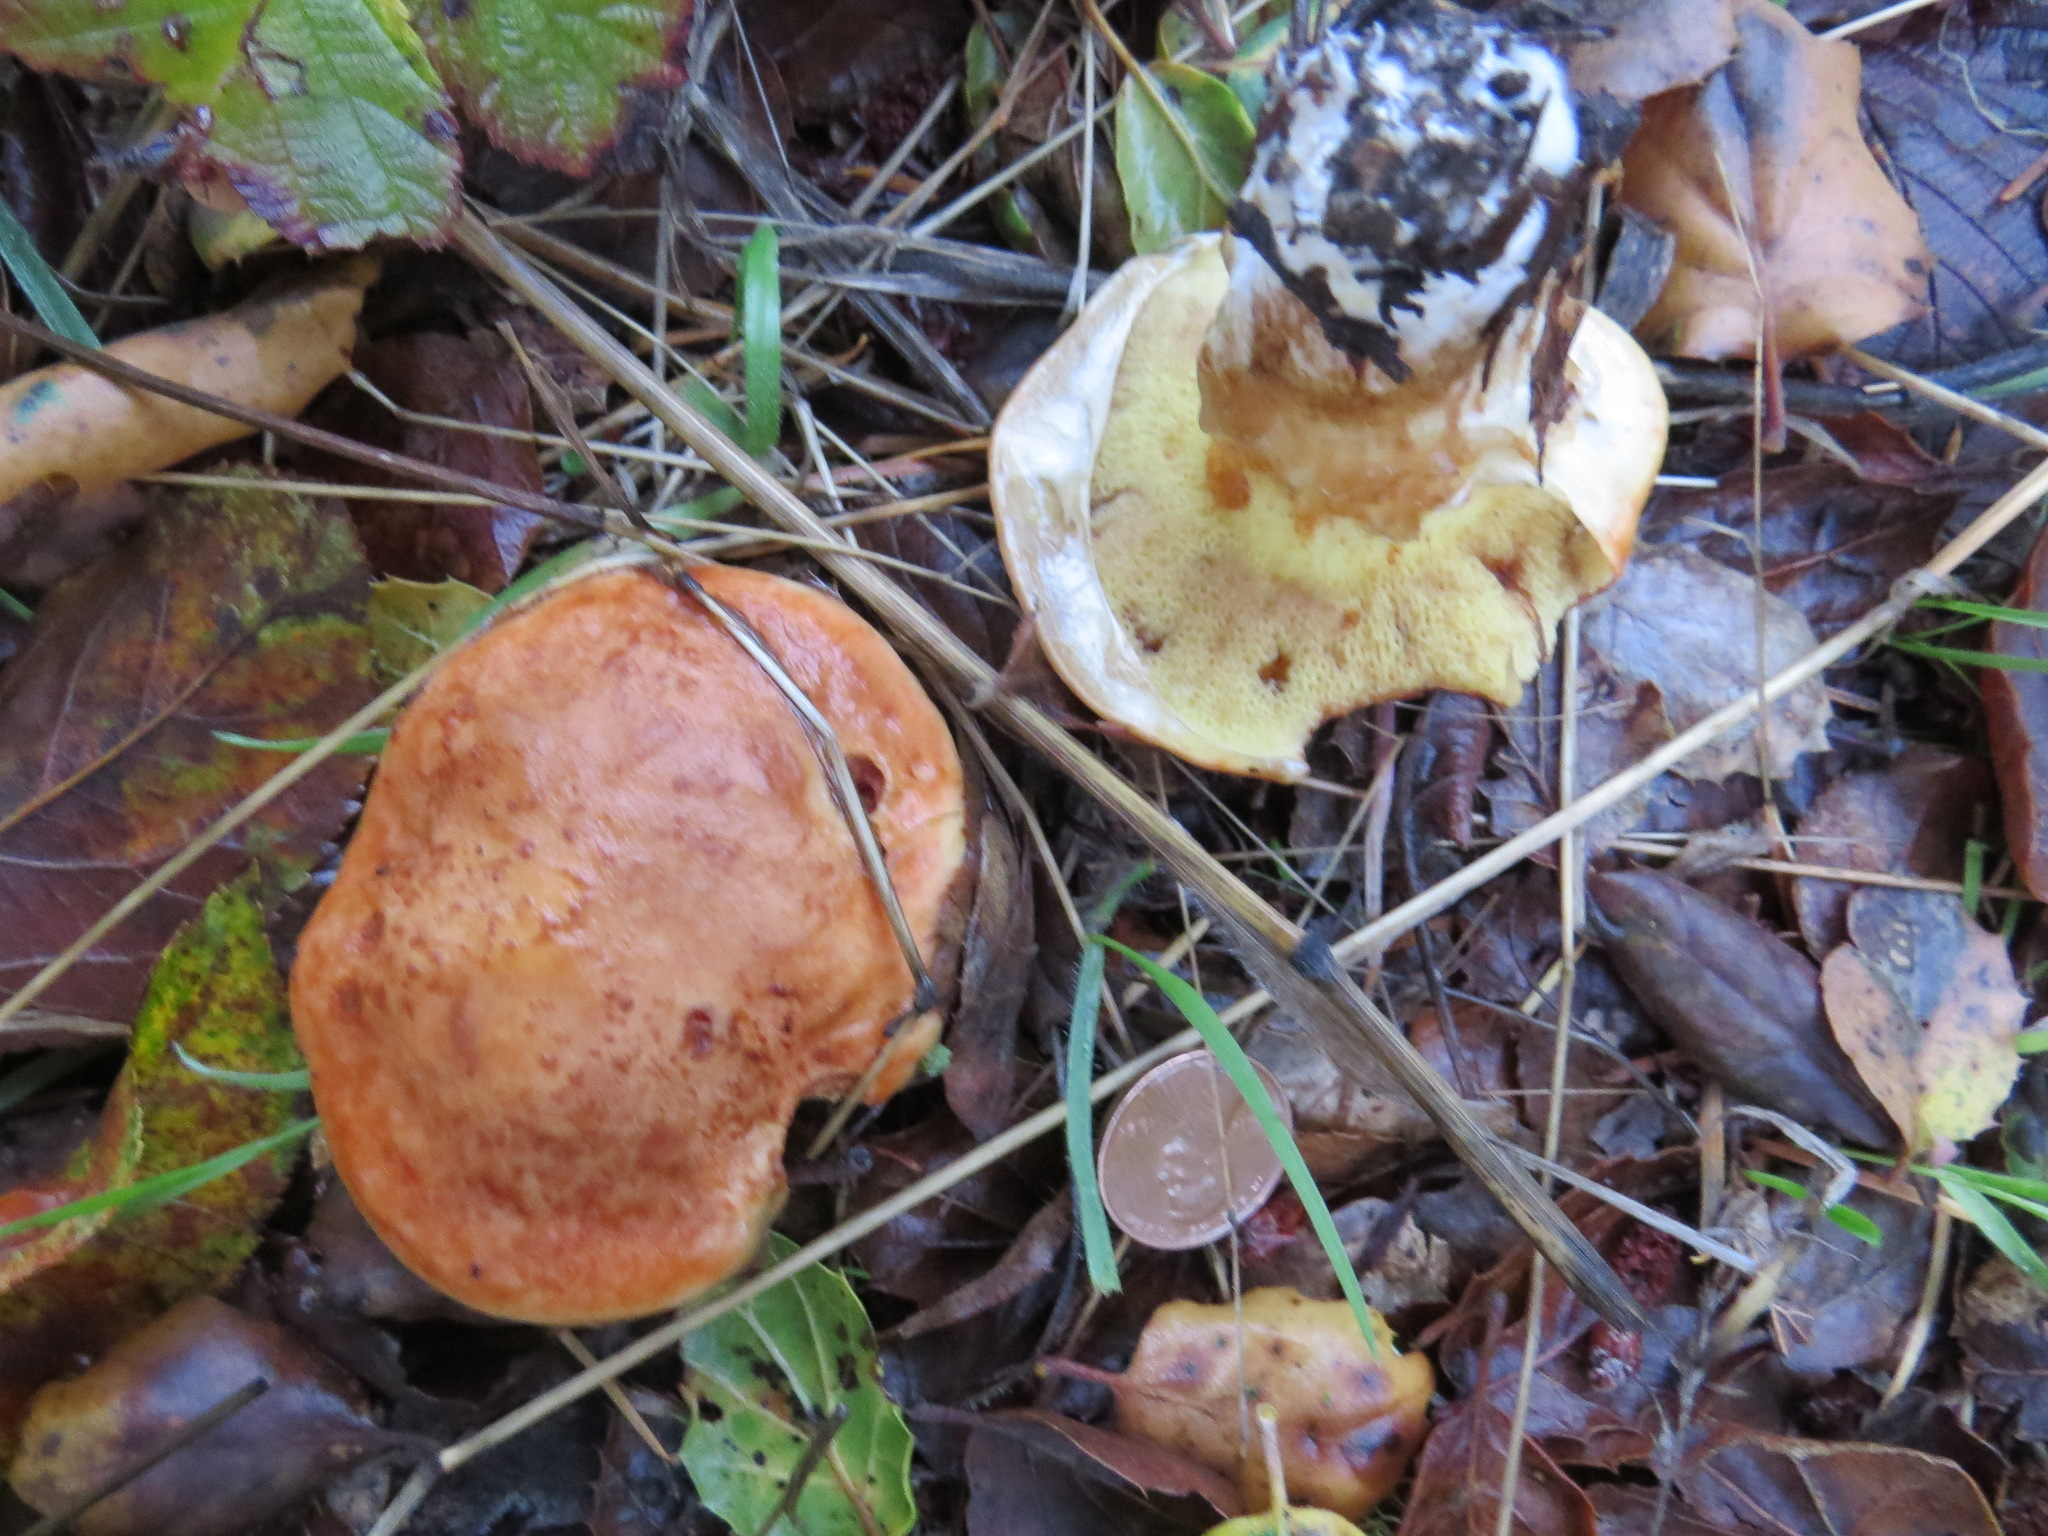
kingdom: Fungi
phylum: Basidiomycota
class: Agaricomycetes
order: Boletales
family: Suillaceae
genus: Suillus
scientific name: Suillus caerulescens
